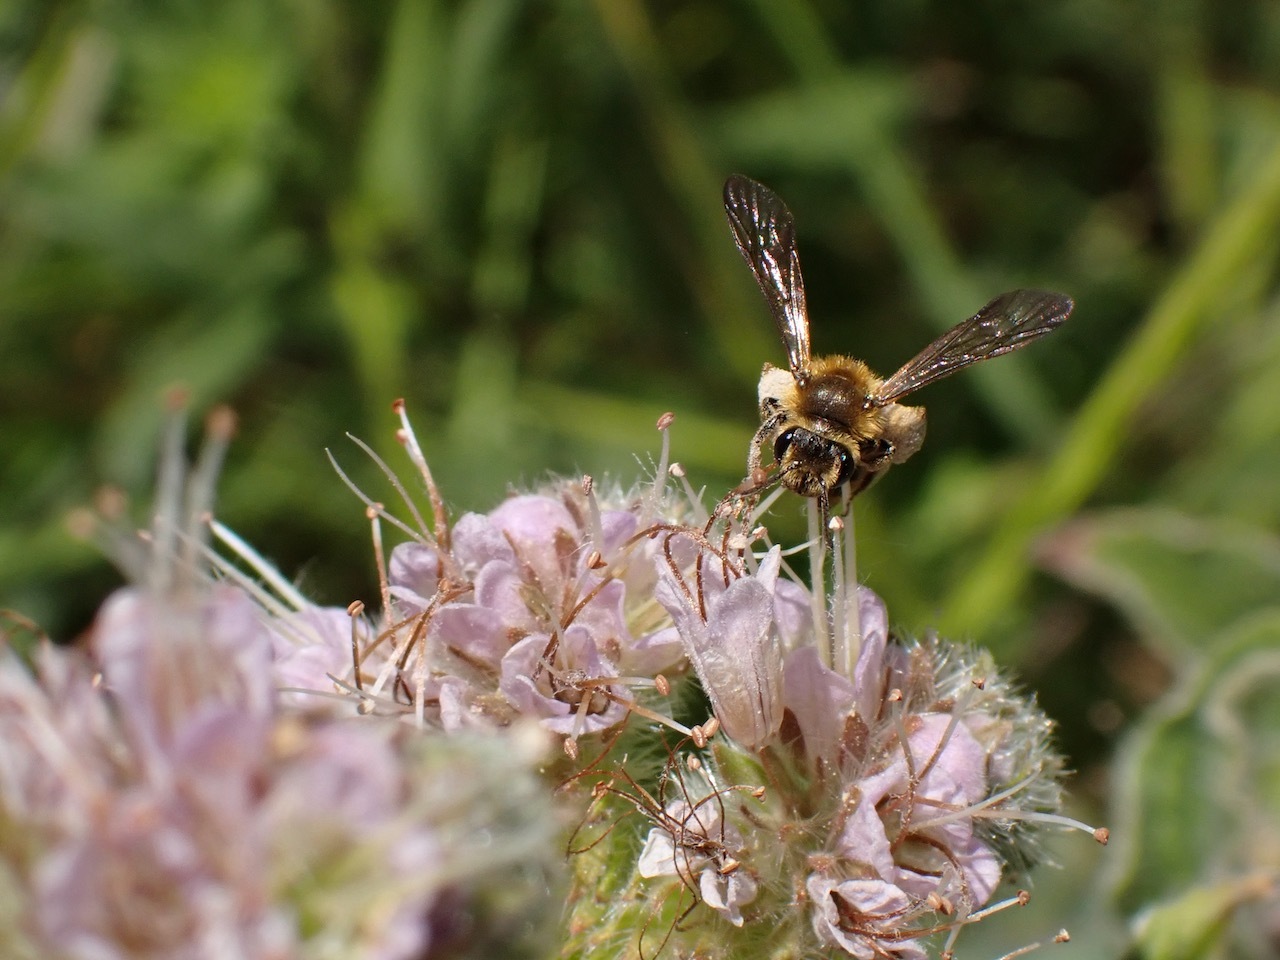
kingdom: Animalia
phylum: Arthropoda
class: Insecta
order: Hymenoptera
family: Andrenidae
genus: Andrena
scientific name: Andrena auricoma
